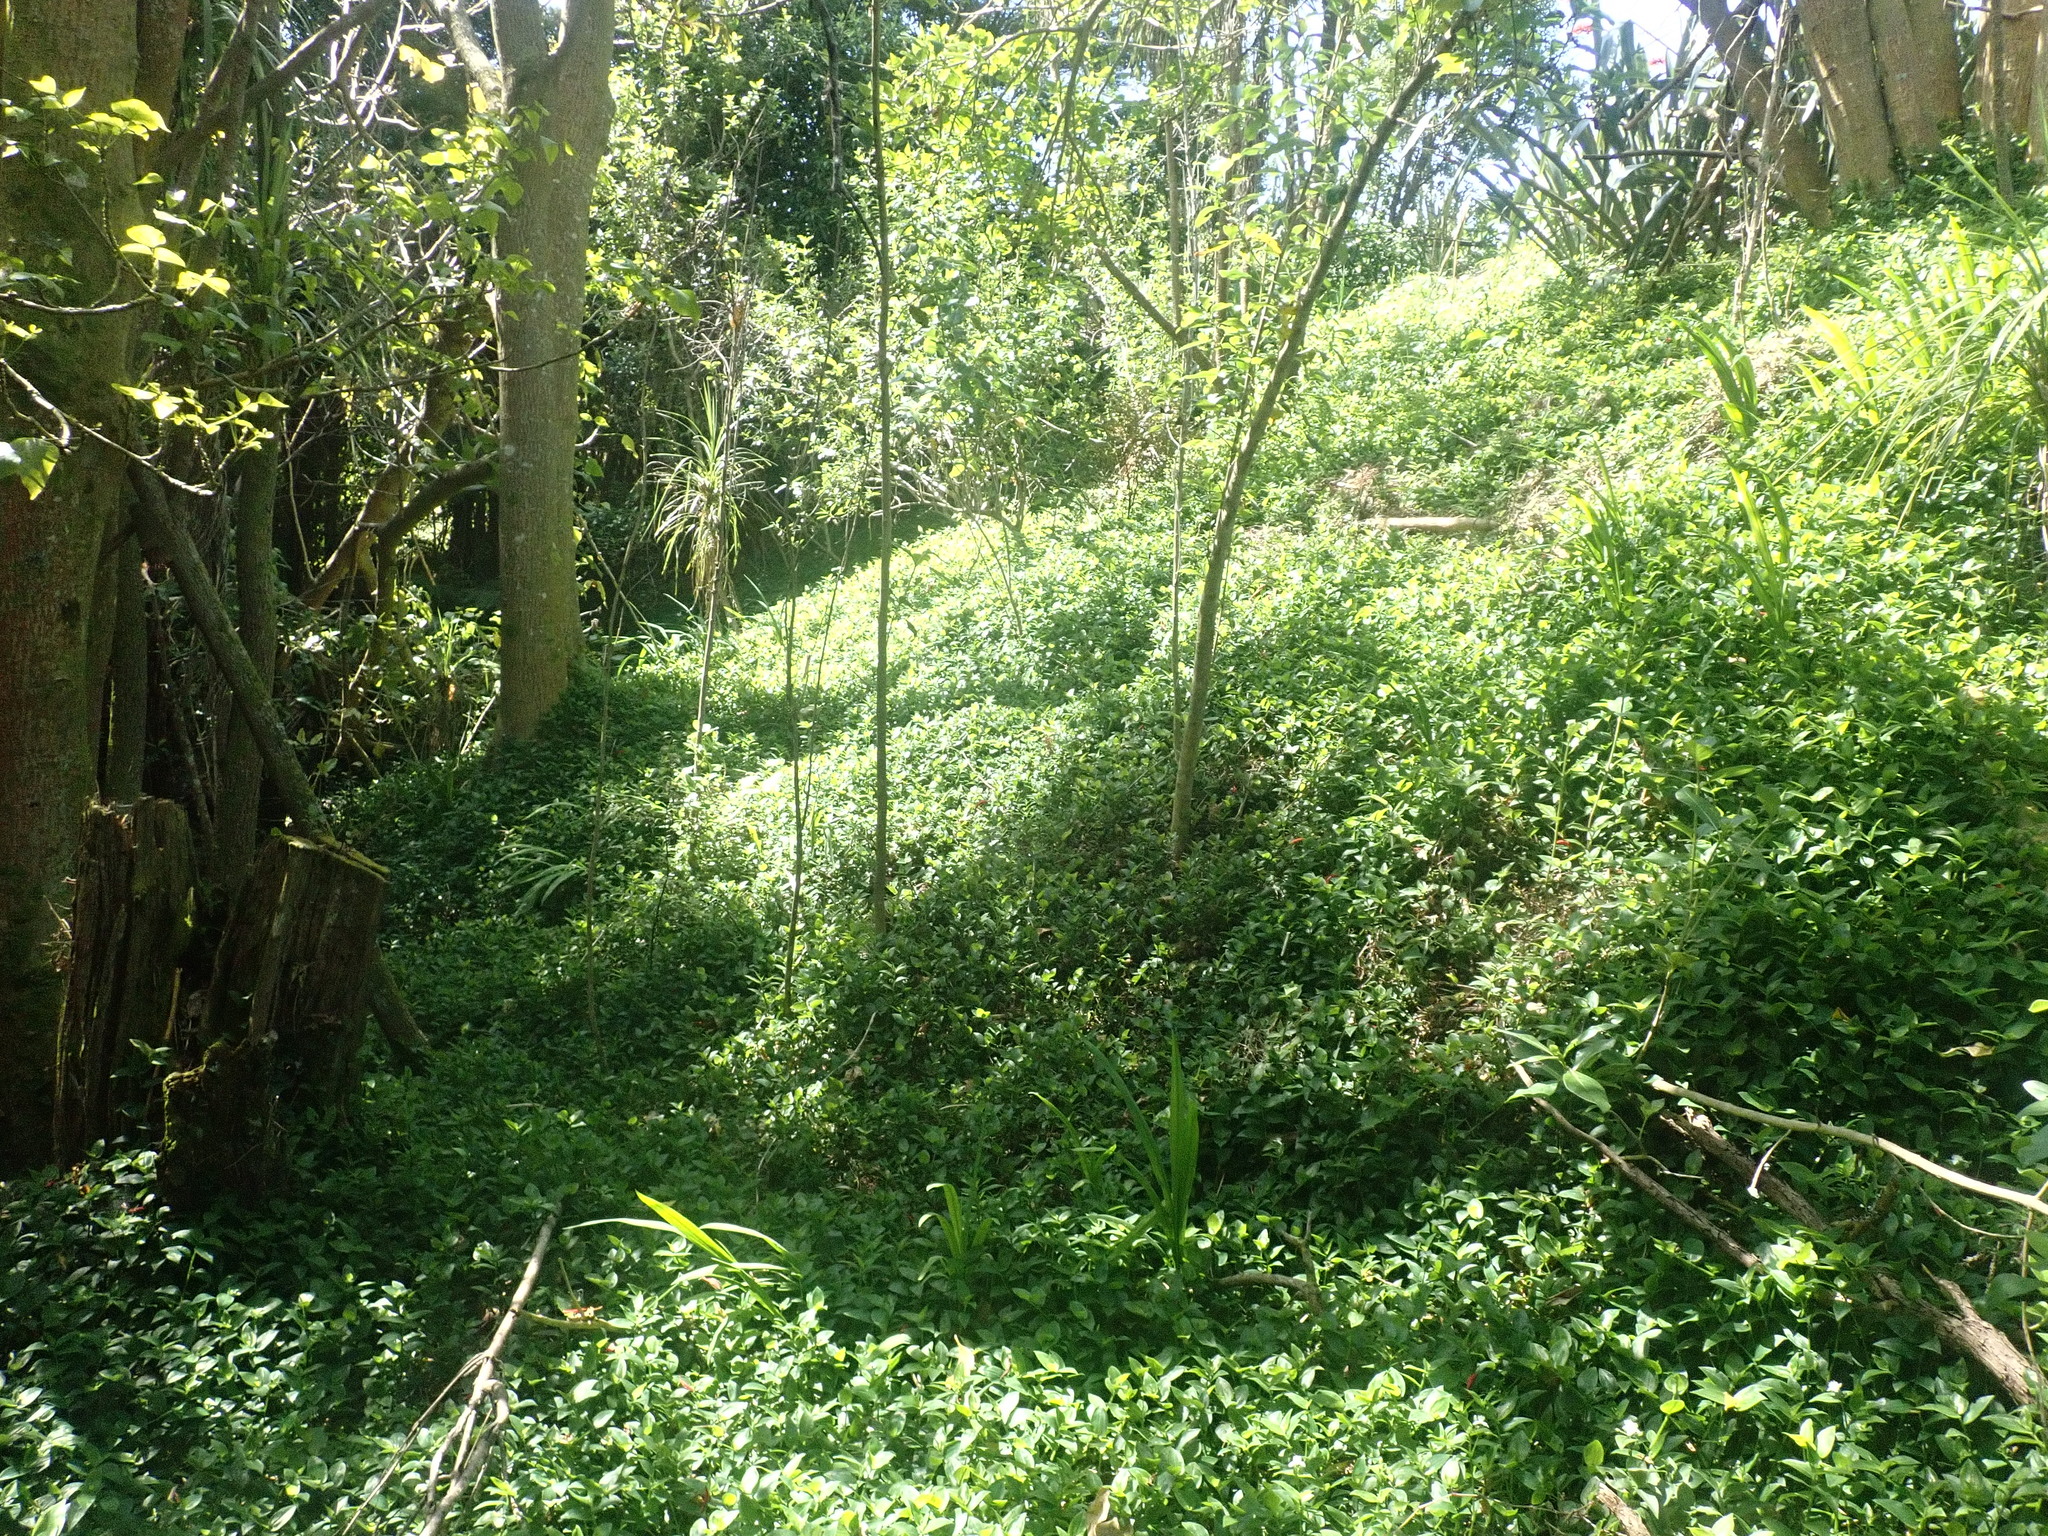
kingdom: Plantae
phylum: Tracheophyta
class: Magnoliopsida
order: Gentianales
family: Rubiaceae
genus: Coprosma
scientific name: Coprosma robusta
